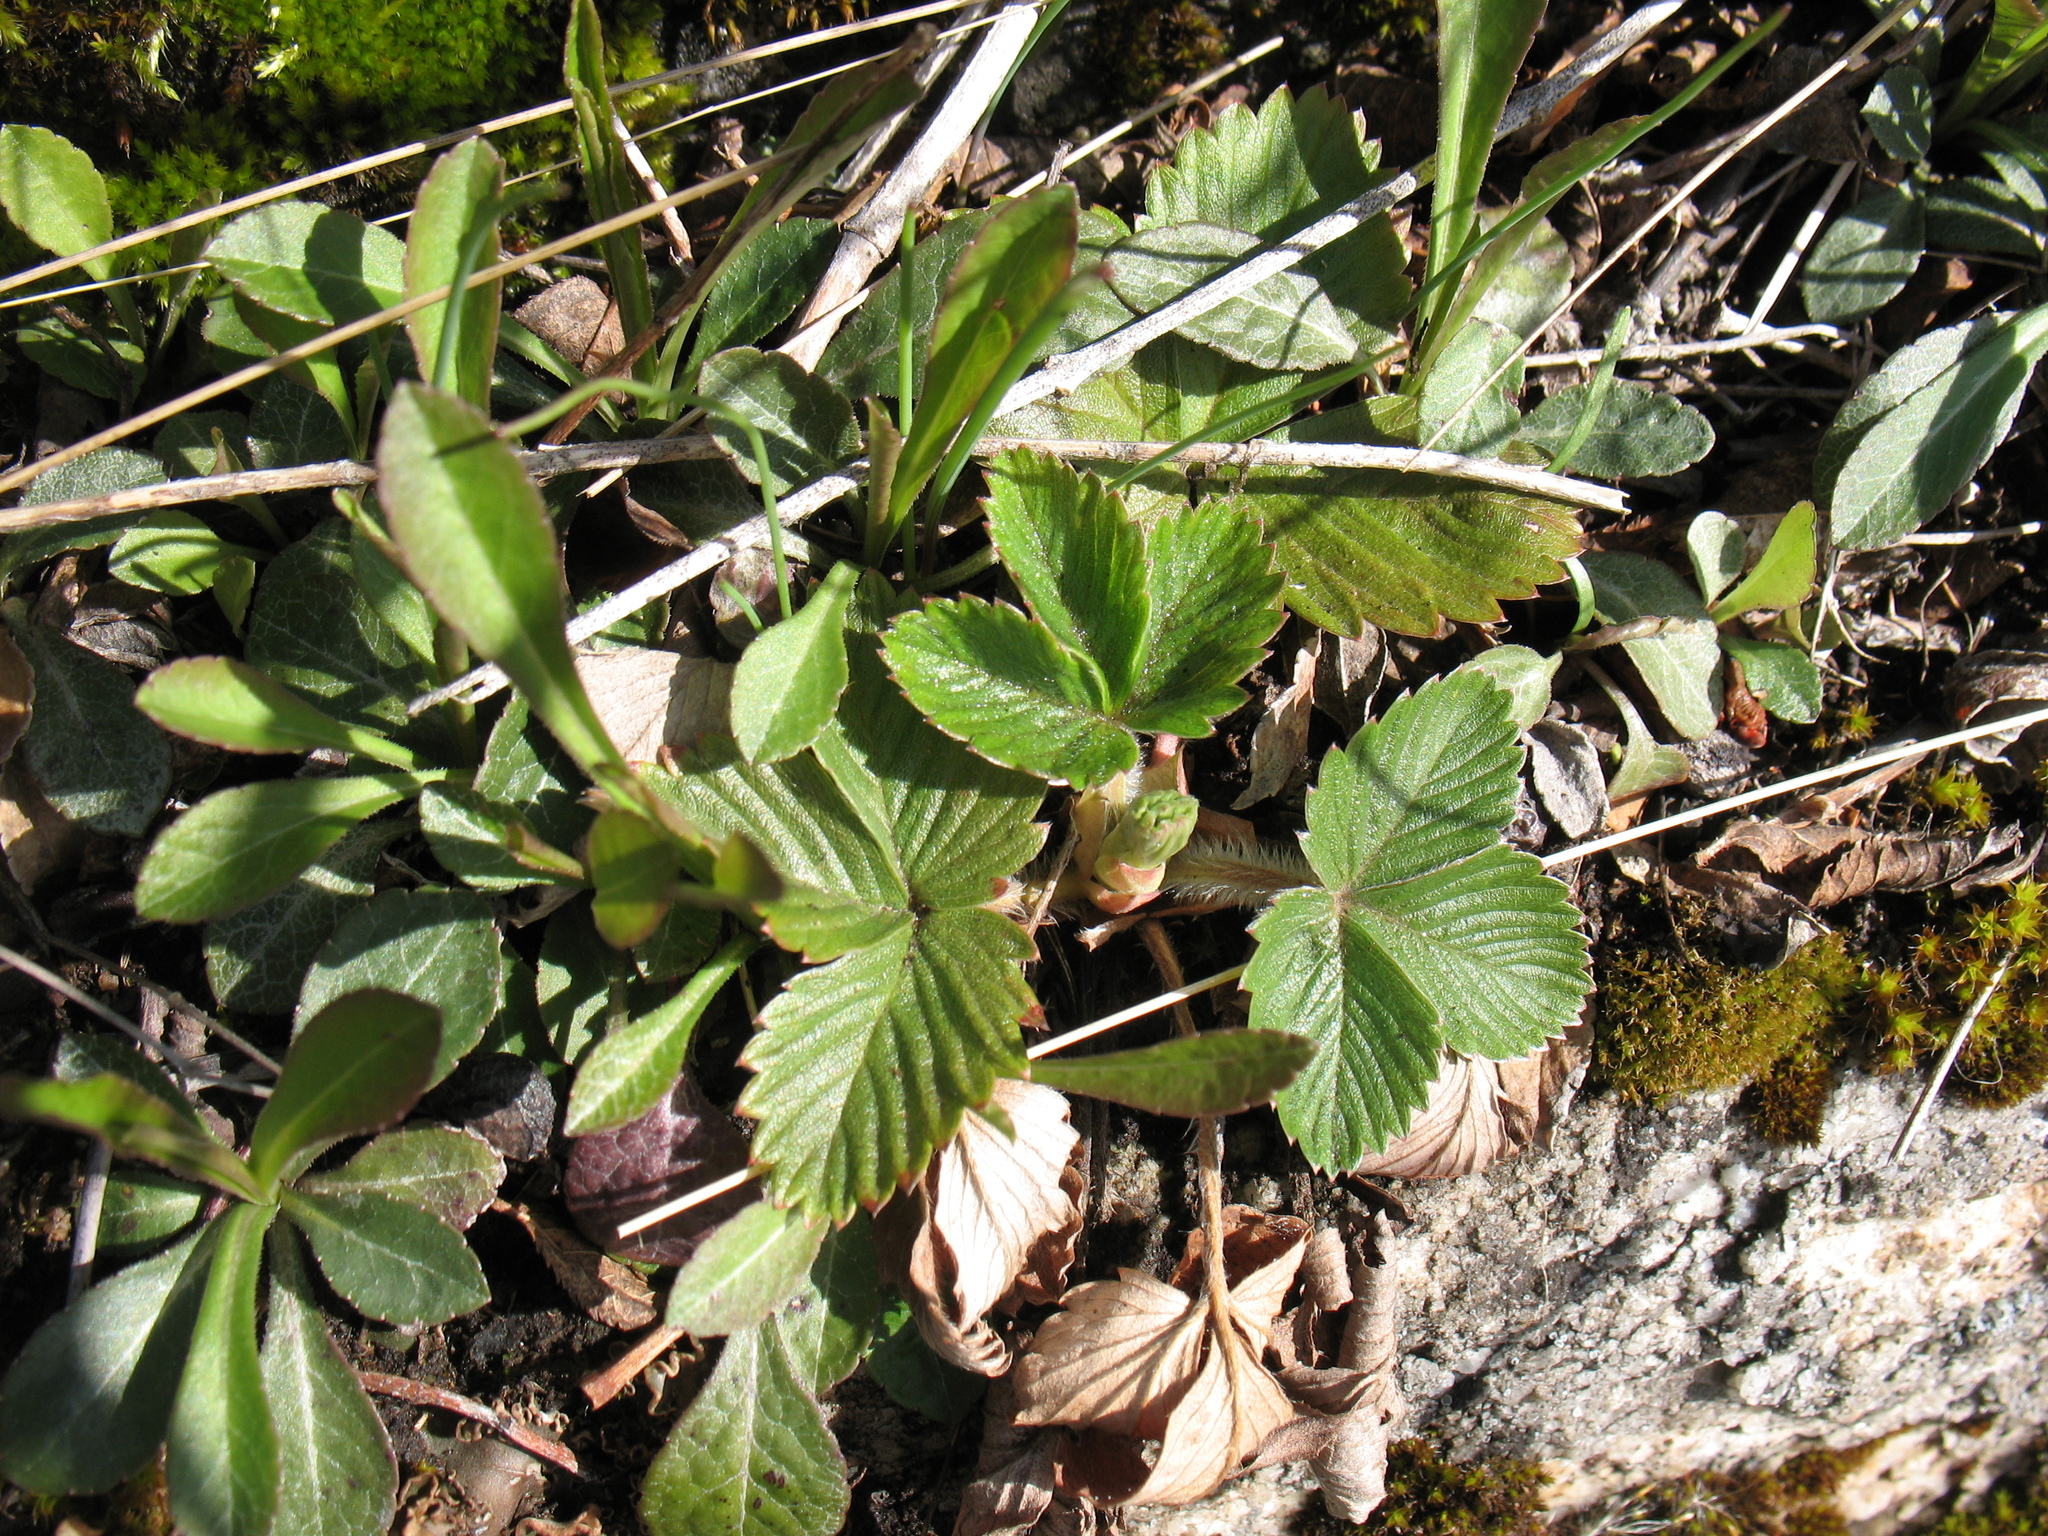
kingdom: Plantae
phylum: Tracheophyta
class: Magnoliopsida
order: Rosales
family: Rosaceae
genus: Fragaria
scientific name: Fragaria vesca
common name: Wild strawberry
